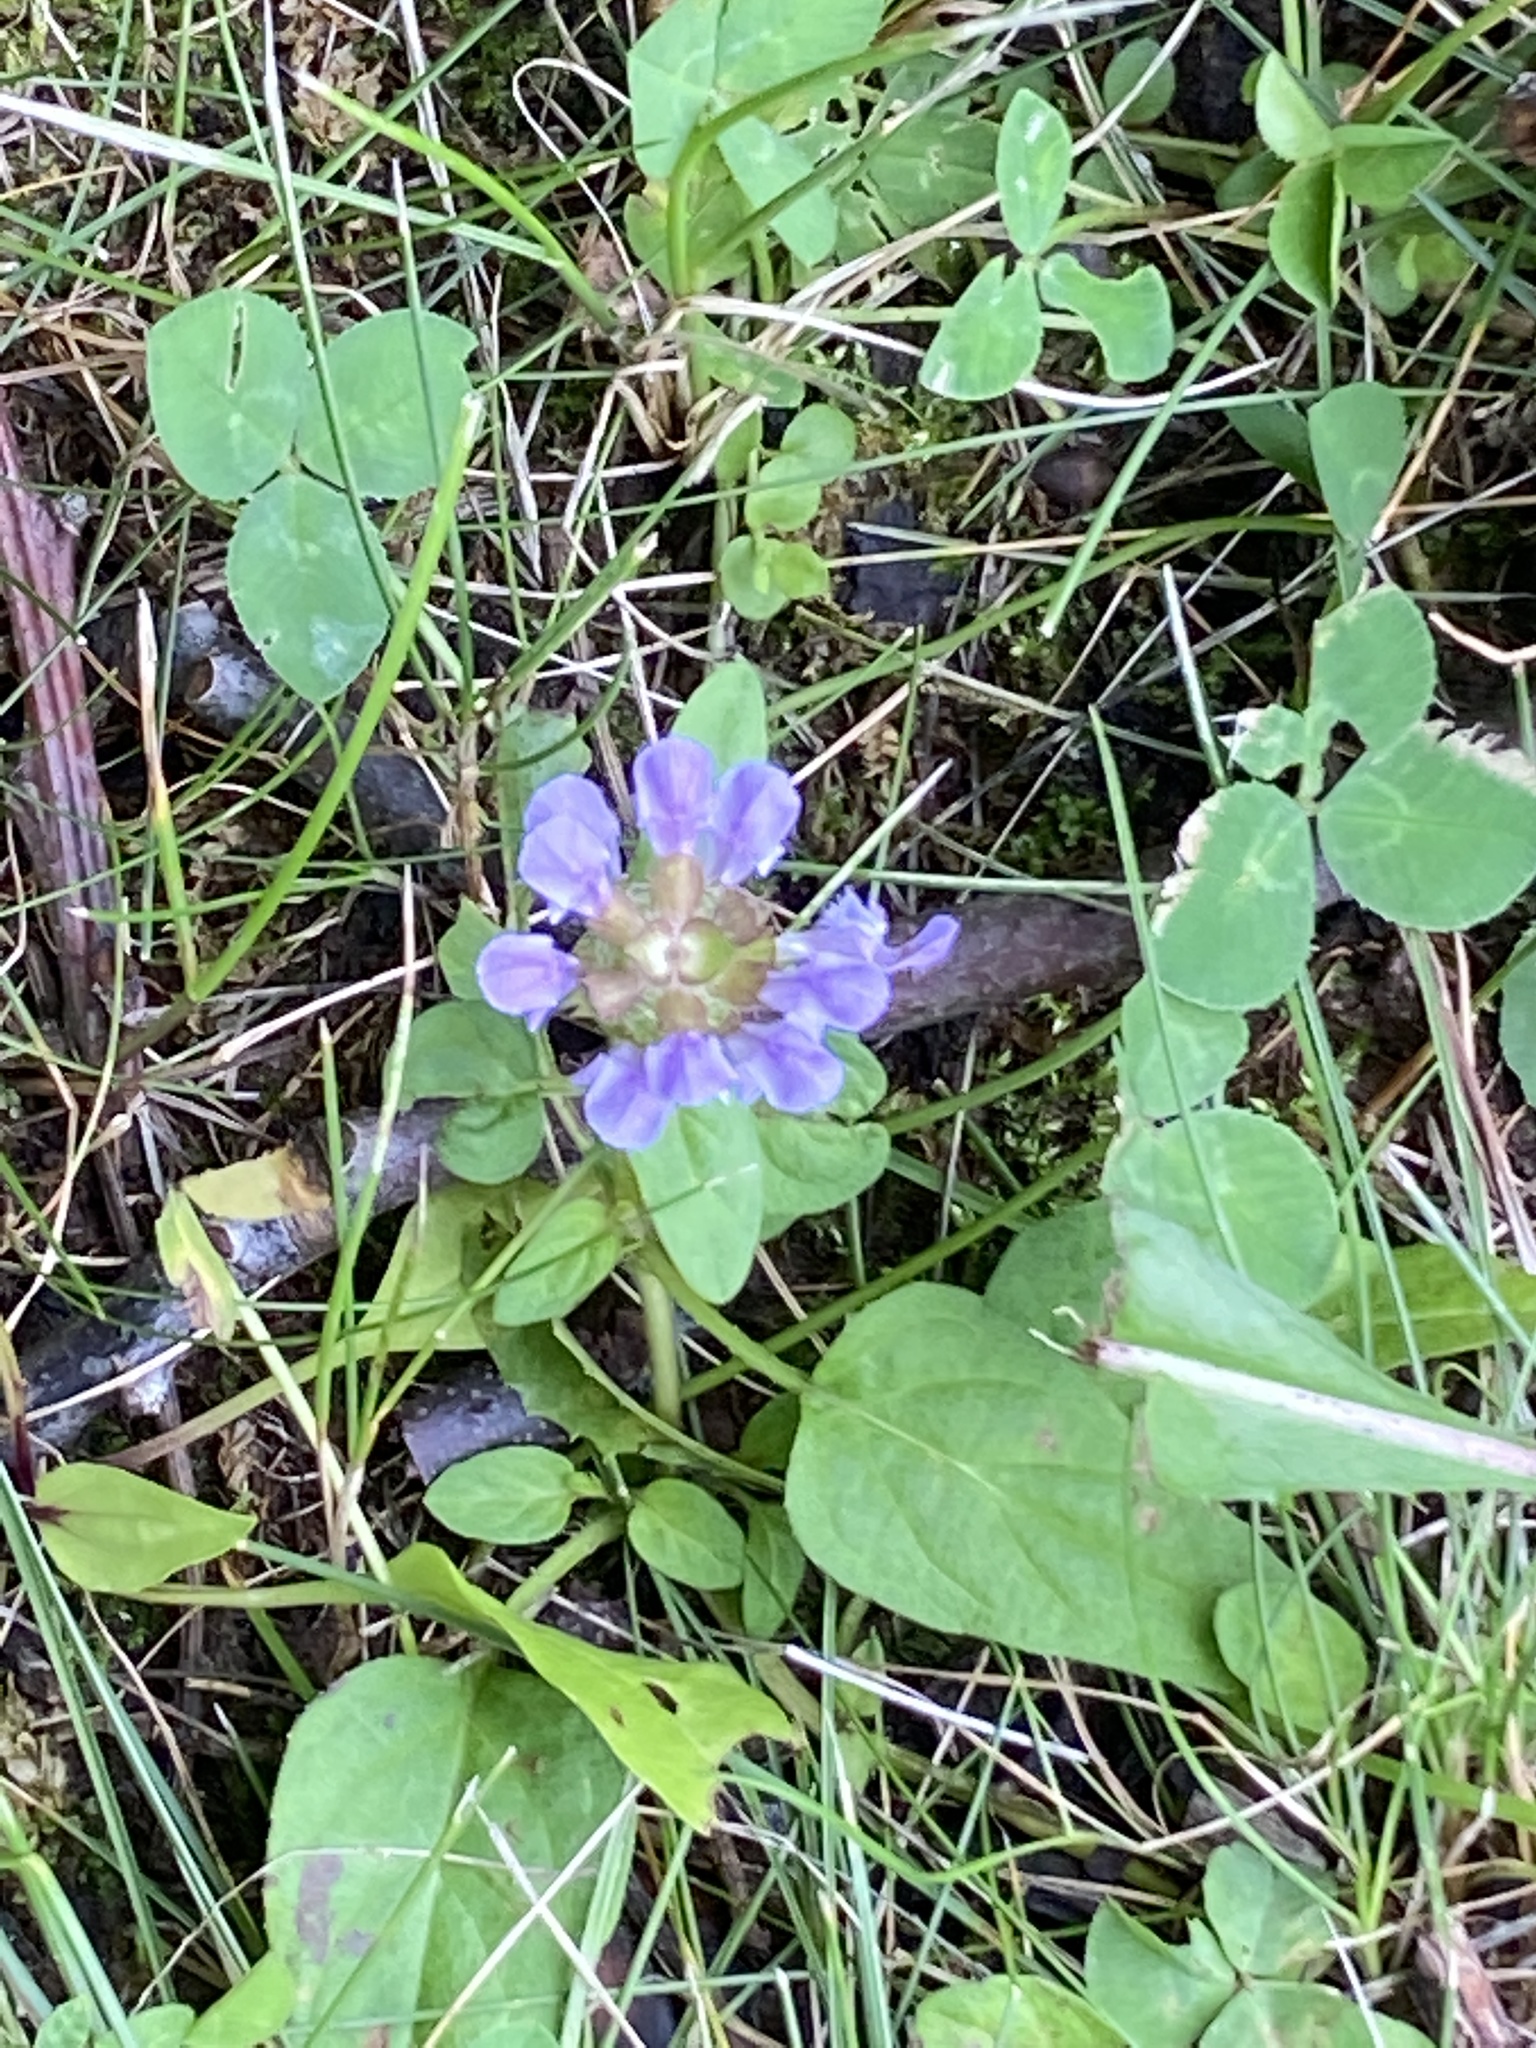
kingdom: Plantae
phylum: Tracheophyta
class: Magnoliopsida
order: Lamiales
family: Lamiaceae
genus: Prunella
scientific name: Prunella vulgaris
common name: Heal-all
